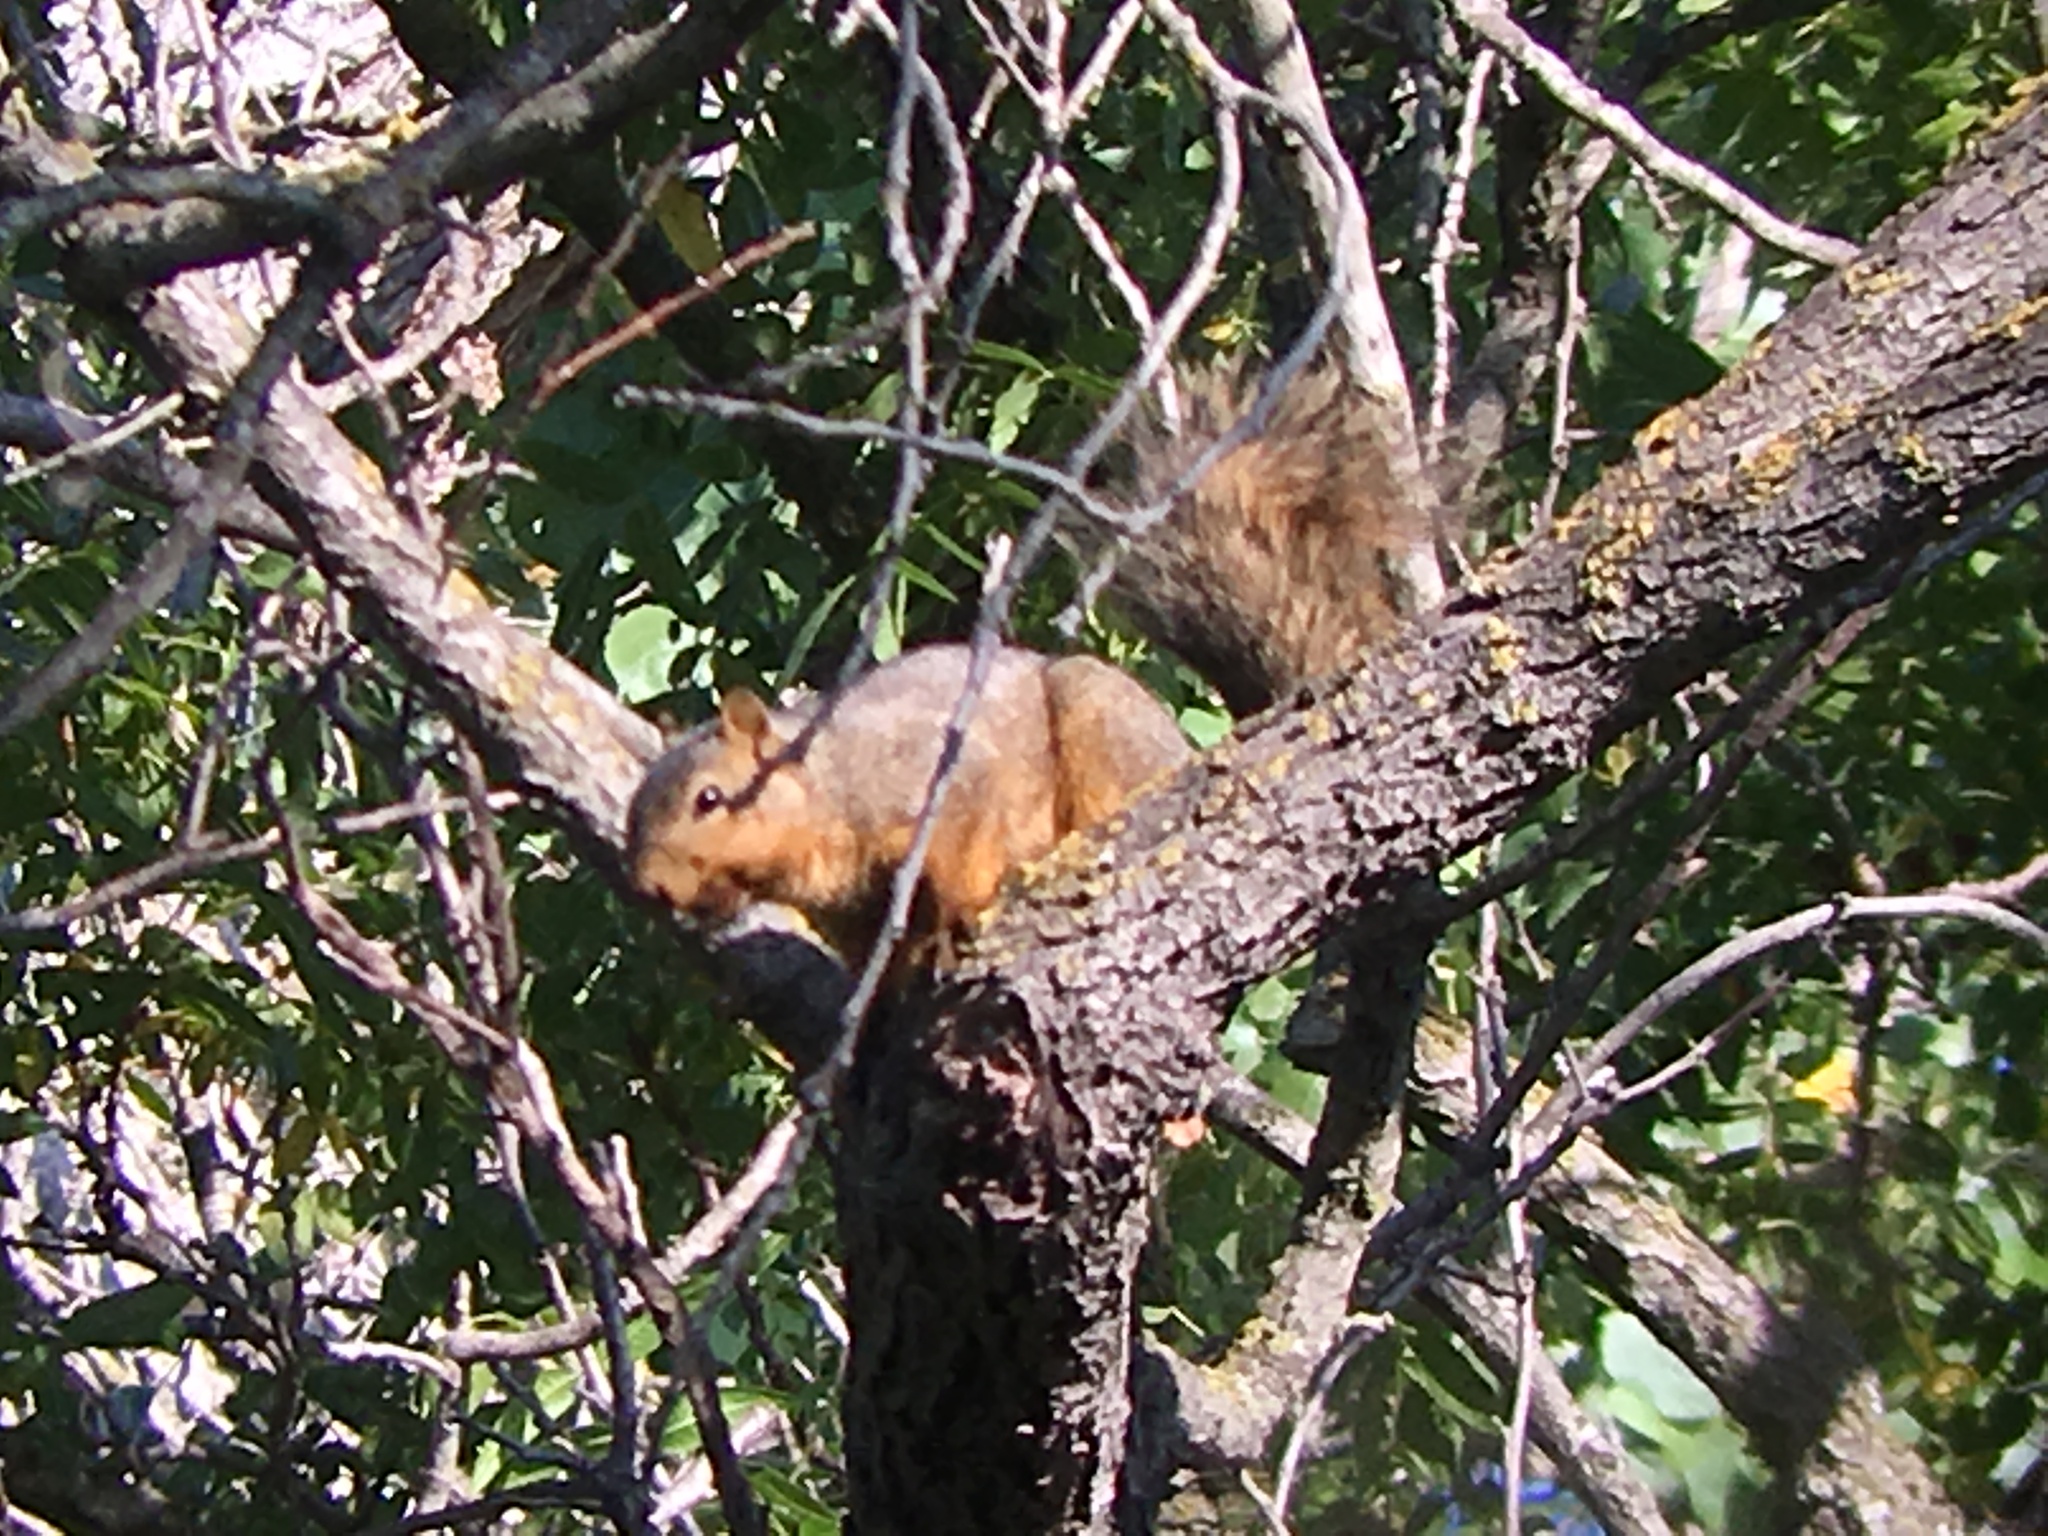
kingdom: Animalia
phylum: Chordata
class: Mammalia
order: Rodentia
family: Sciuridae
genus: Sciurus
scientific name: Sciurus niger
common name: Fox squirrel
